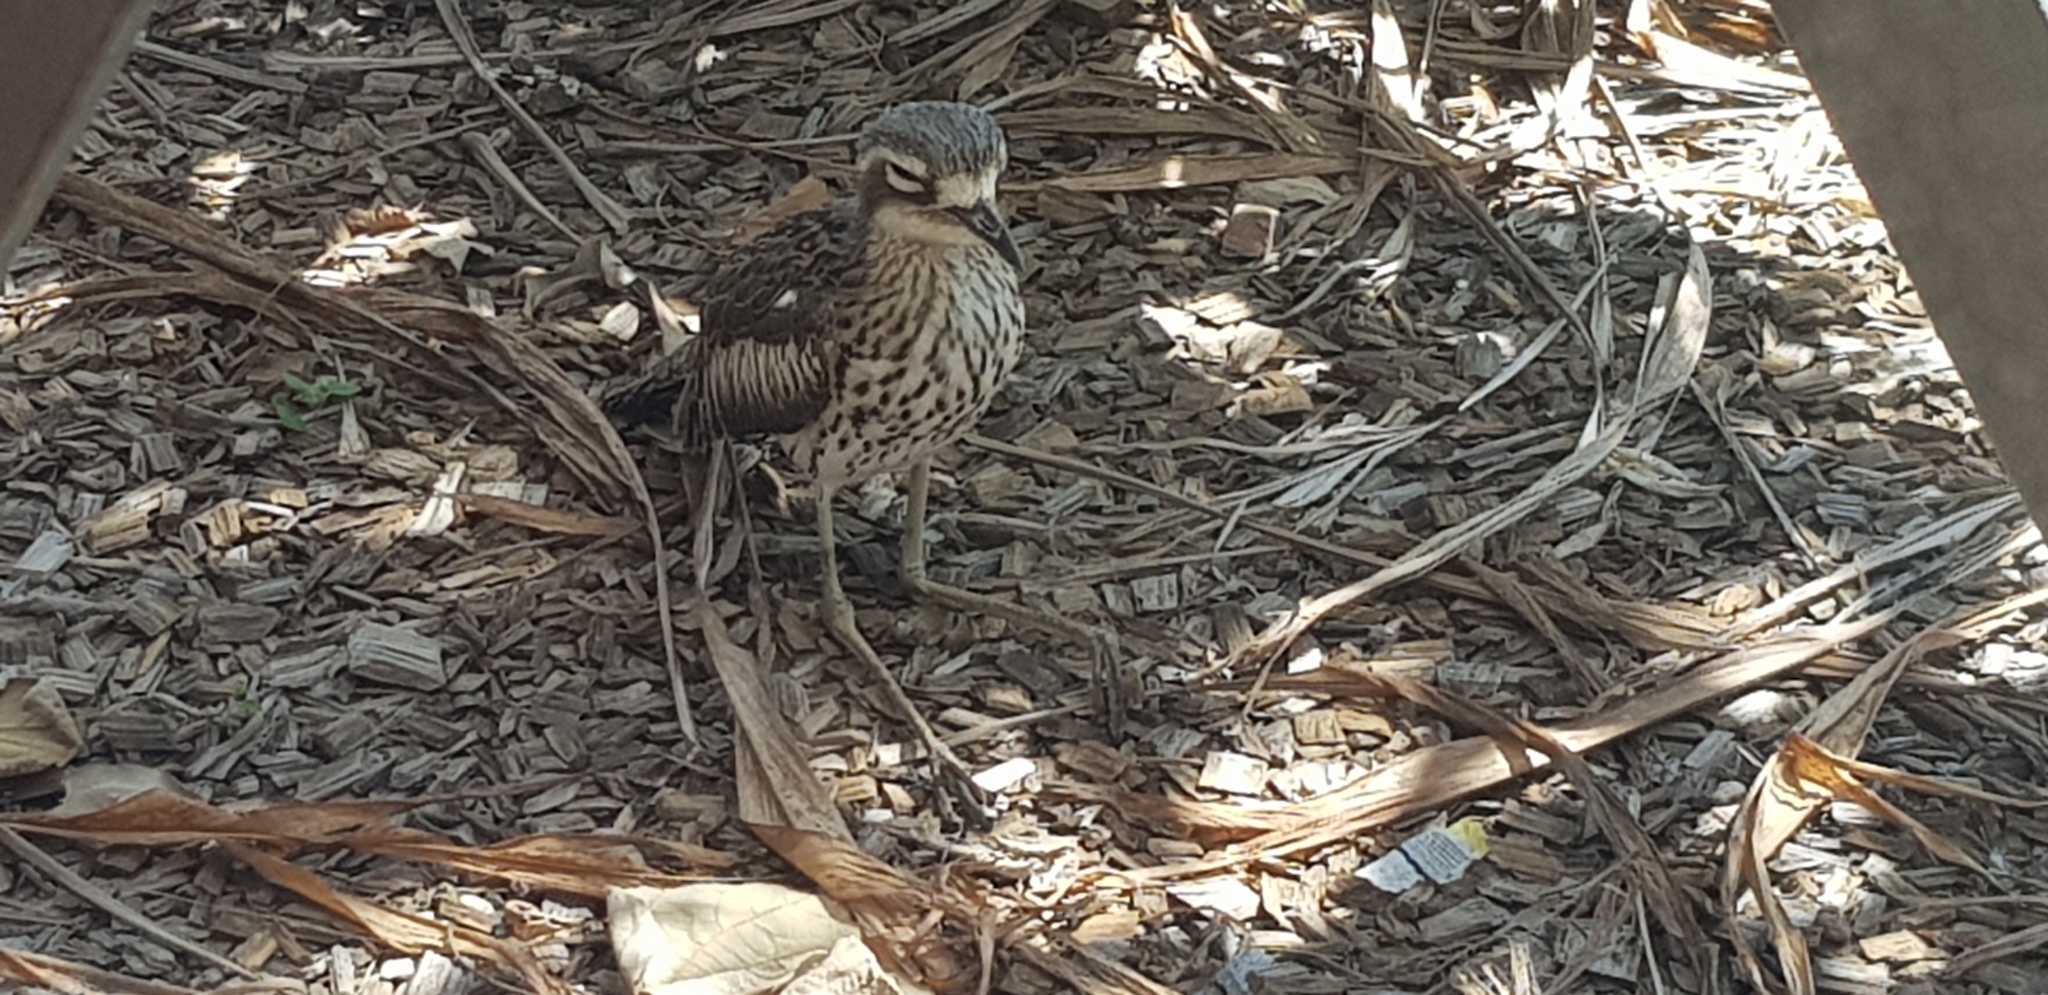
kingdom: Animalia
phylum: Chordata
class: Aves
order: Charadriiformes
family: Burhinidae
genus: Burhinus
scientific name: Burhinus grallarius
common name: Bush stone-curlew
